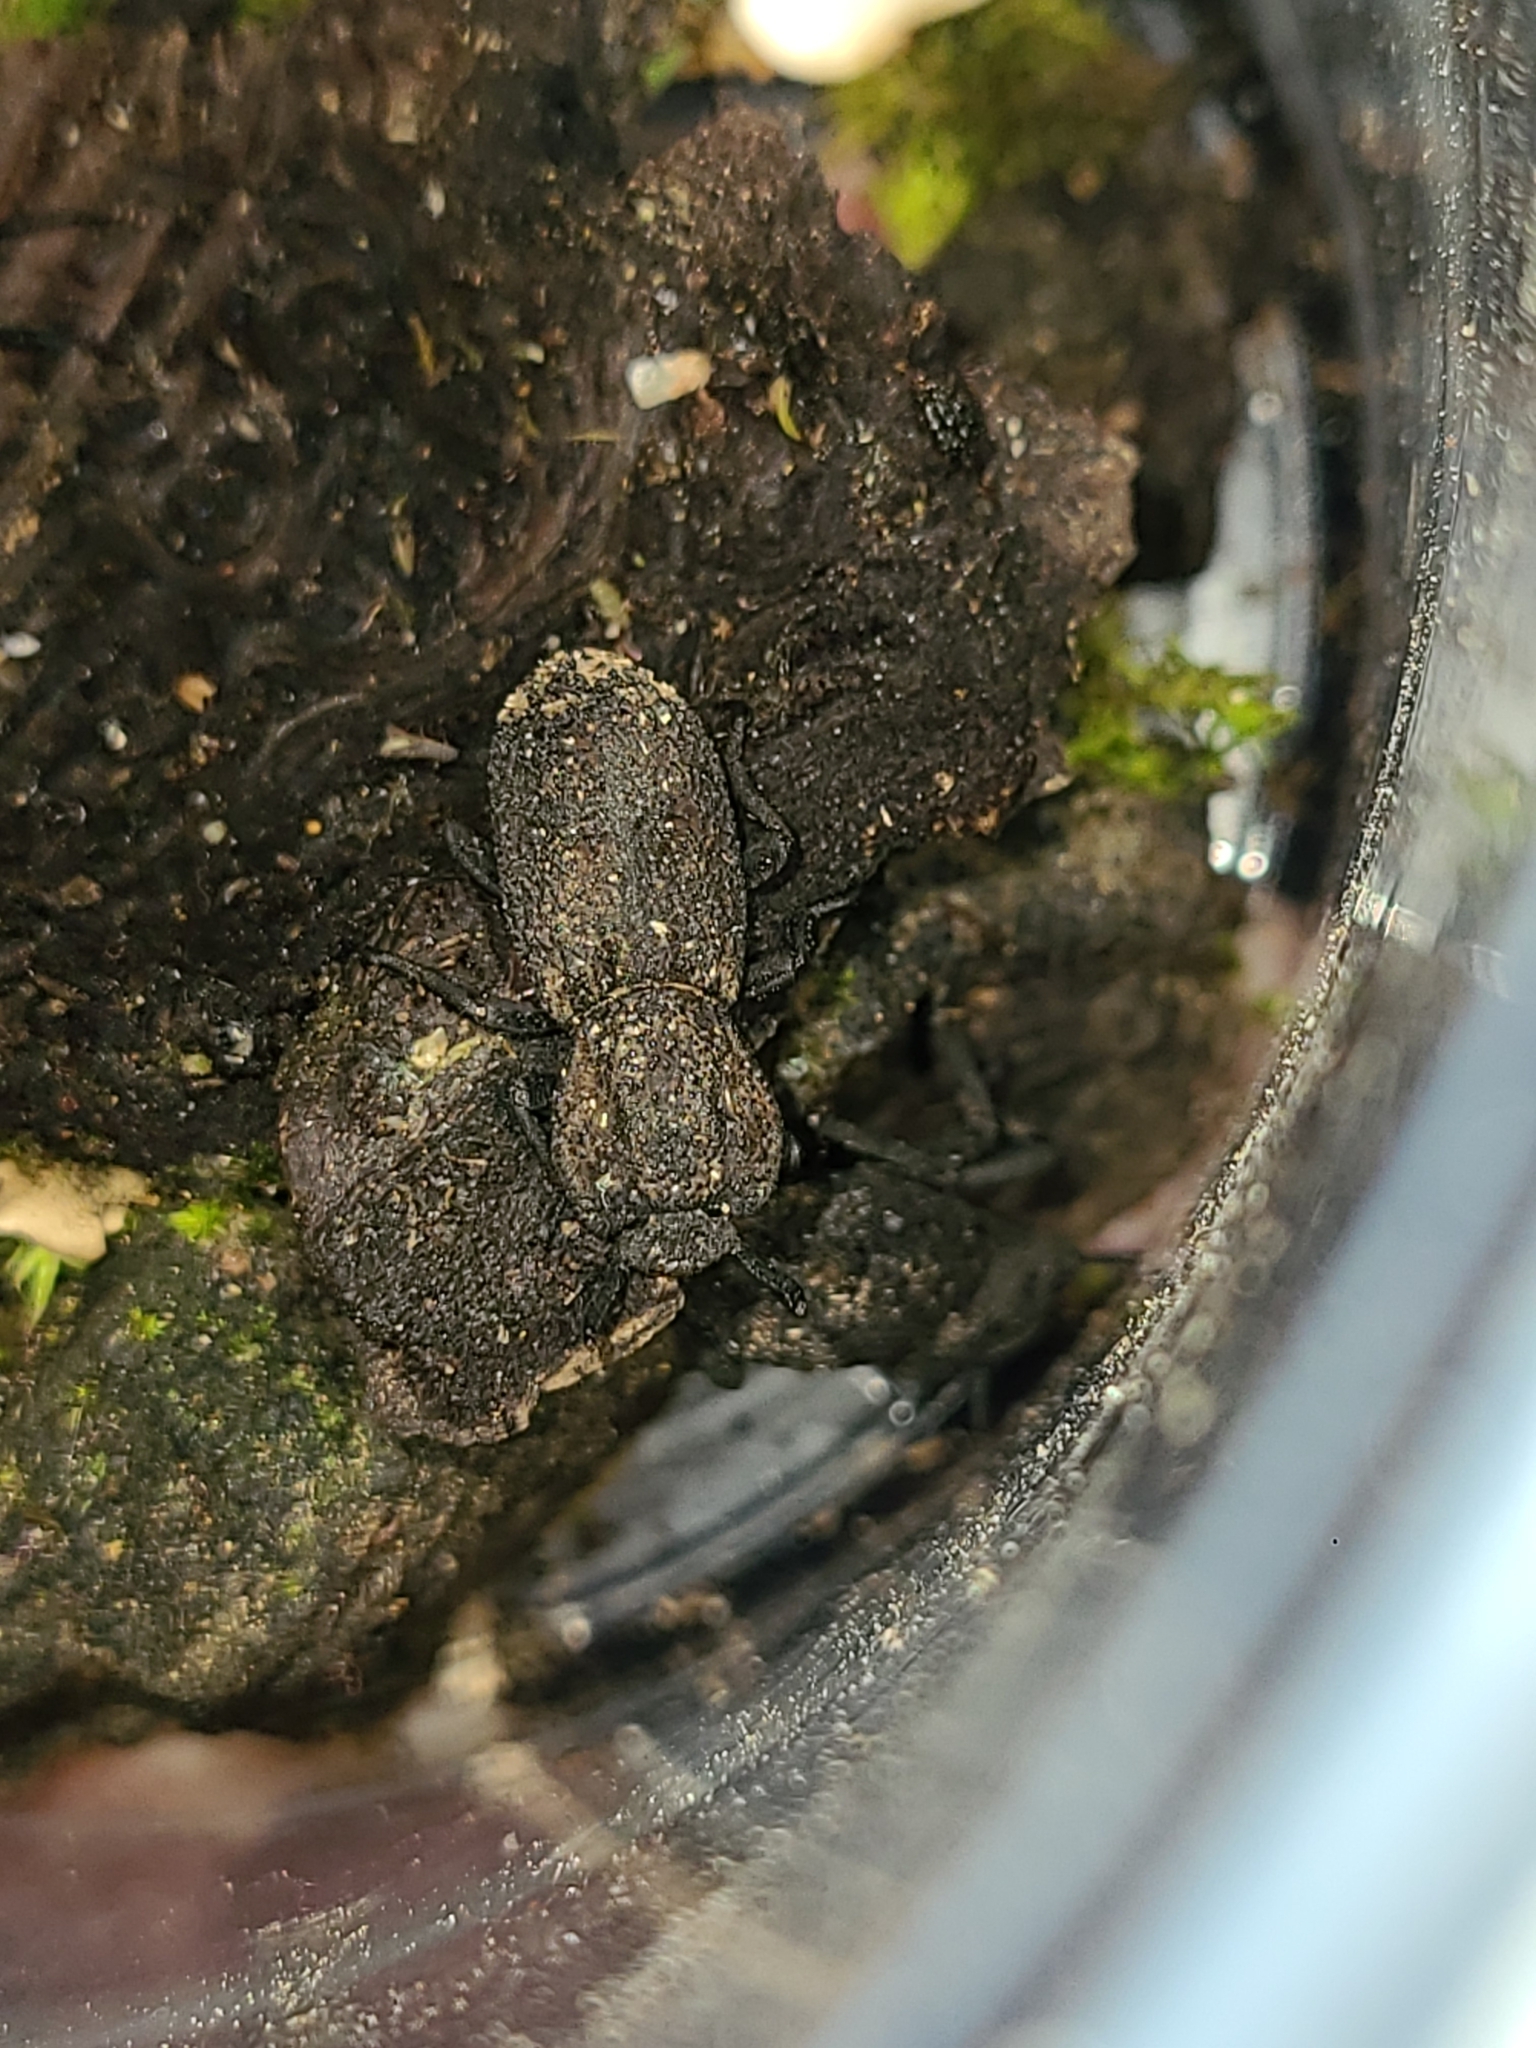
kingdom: Animalia
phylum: Arthropoda
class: Insecta
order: Coleoptera
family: Zopheridae
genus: Phloeodes
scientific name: Phloeodes diabolicus
